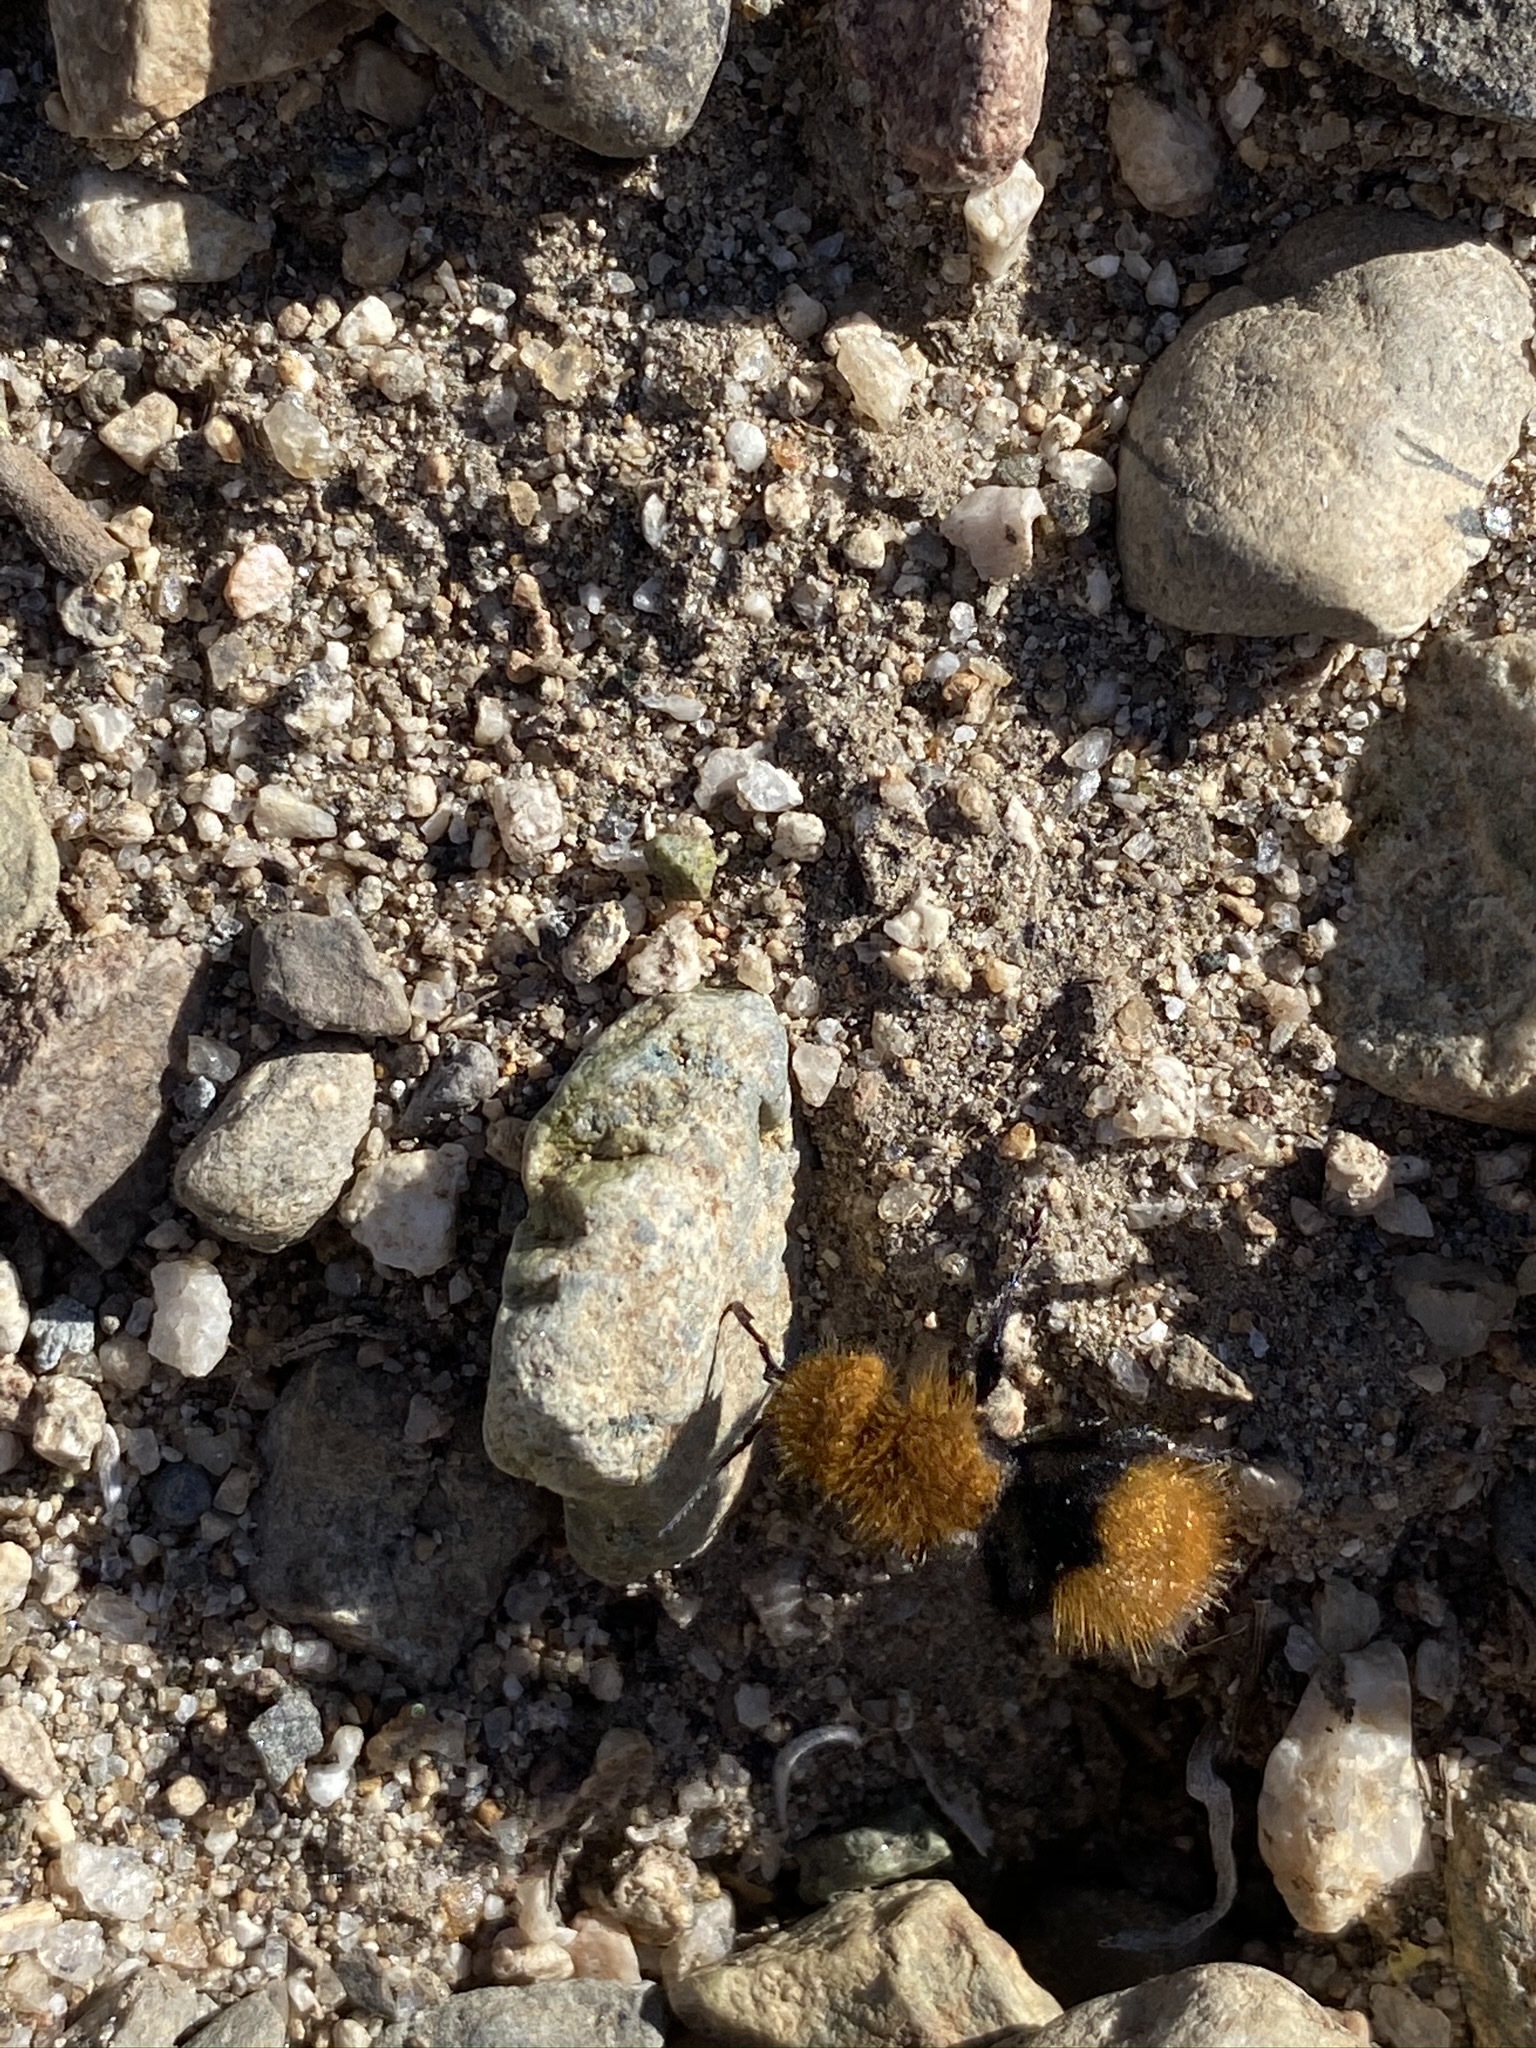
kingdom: Animalia
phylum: Arthropoda
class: Insecta
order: Hymenoptera
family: Mutillidae
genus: Dasymutilla
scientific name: Dasymutilla
